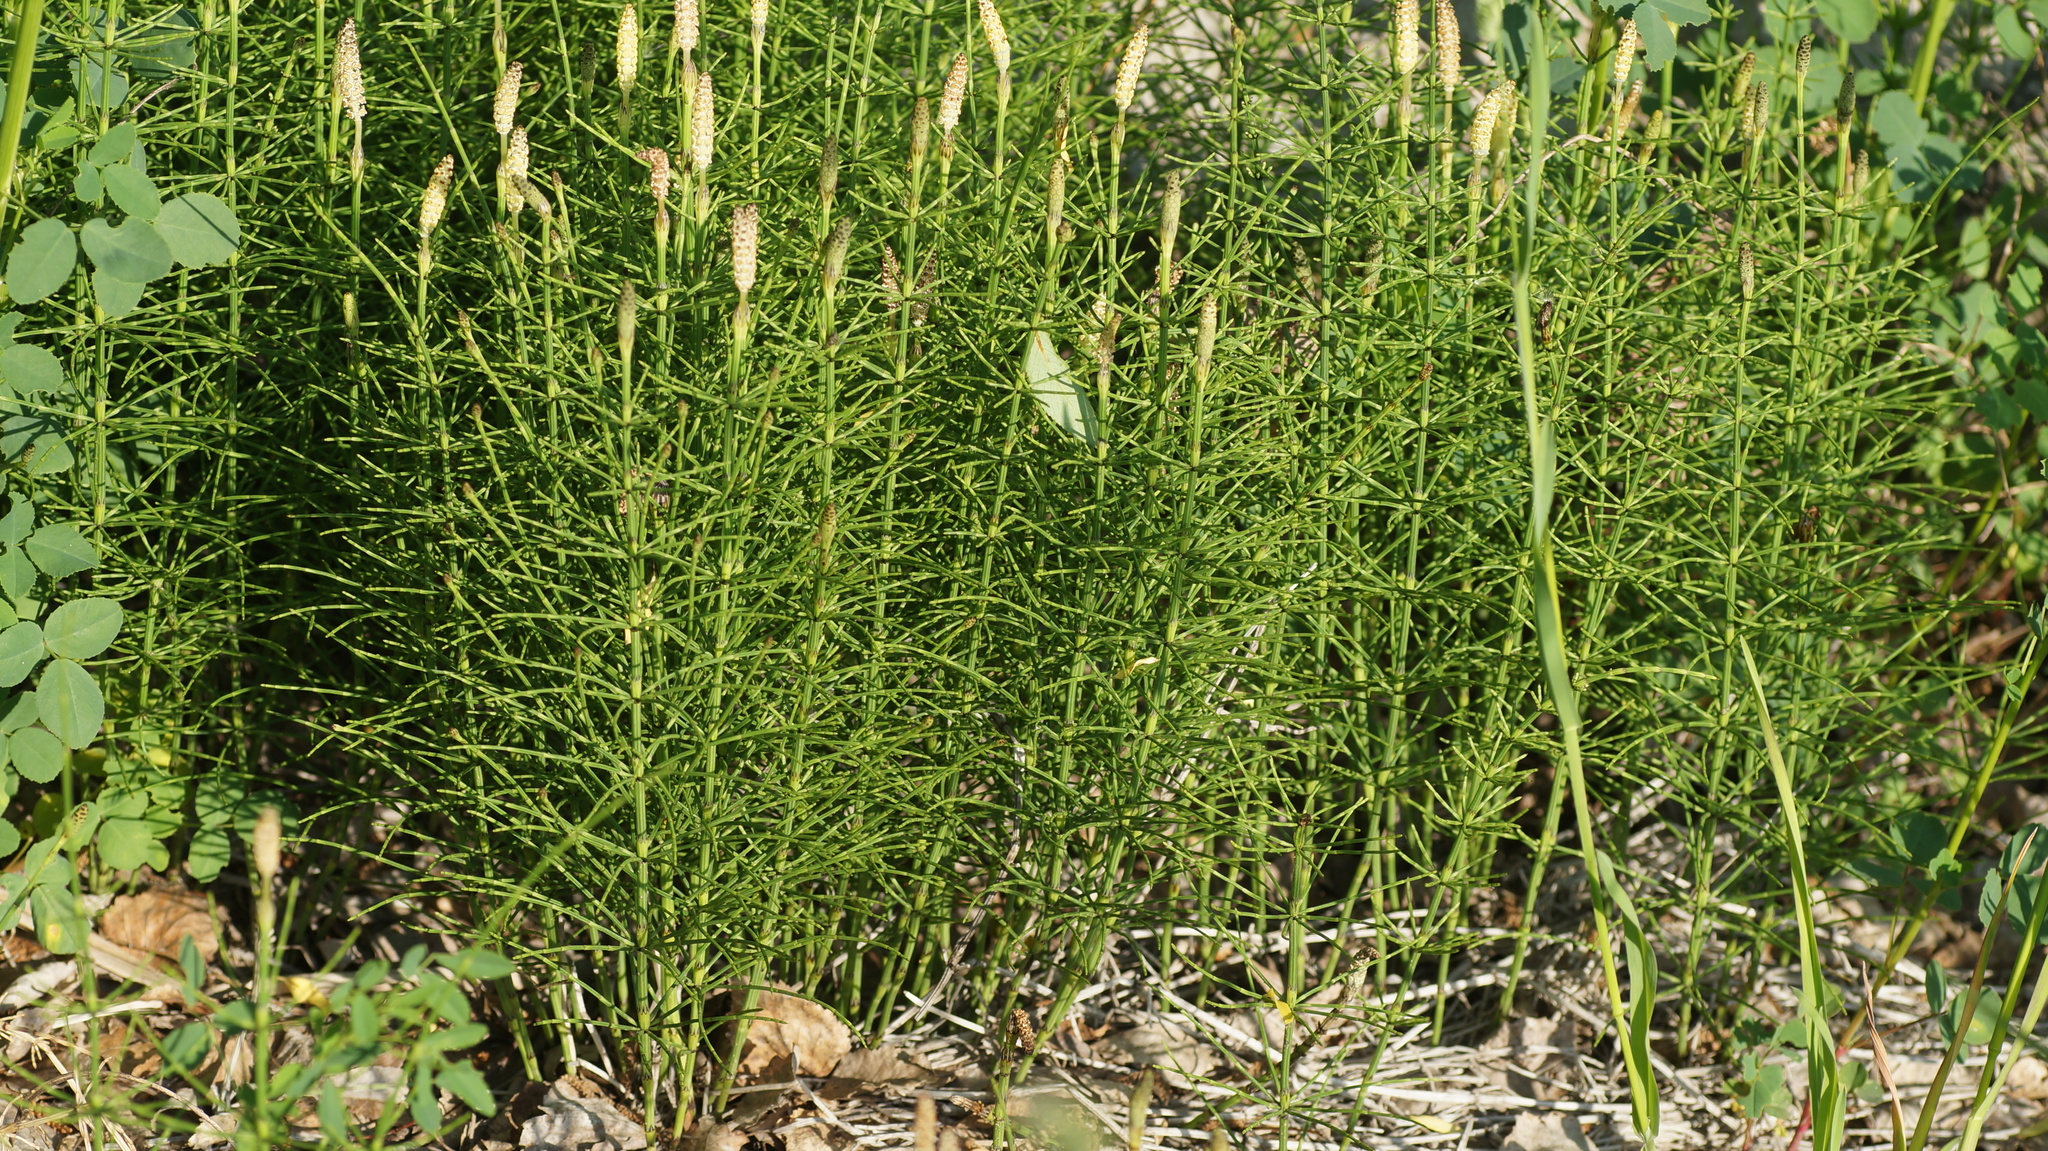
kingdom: Plantae
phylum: Tracheophyta
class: Polypodiopsida
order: Equisetales
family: Equisetaceae
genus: Equisetum
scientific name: Equisetum palustre
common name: Marsh horsetail
